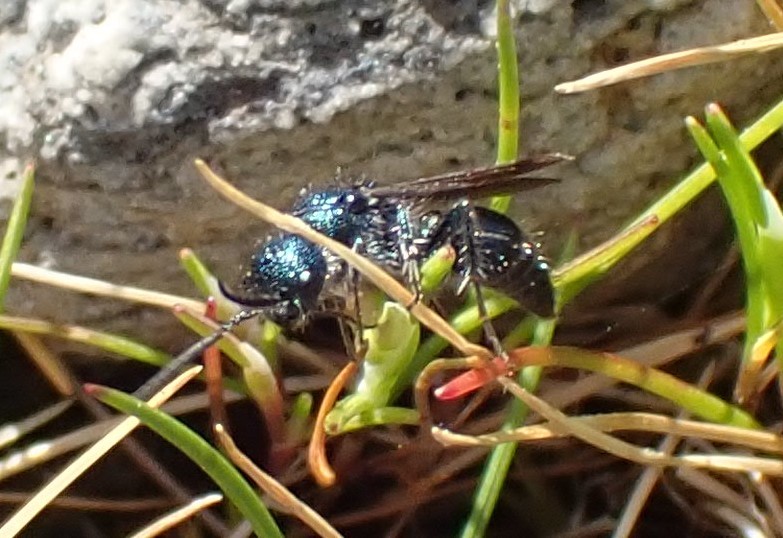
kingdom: Animalia
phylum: Arthropoda
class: Insecta
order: Hymenoptera
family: Mutillidae
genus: Ephutomorpha
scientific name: Ephutomorpha
